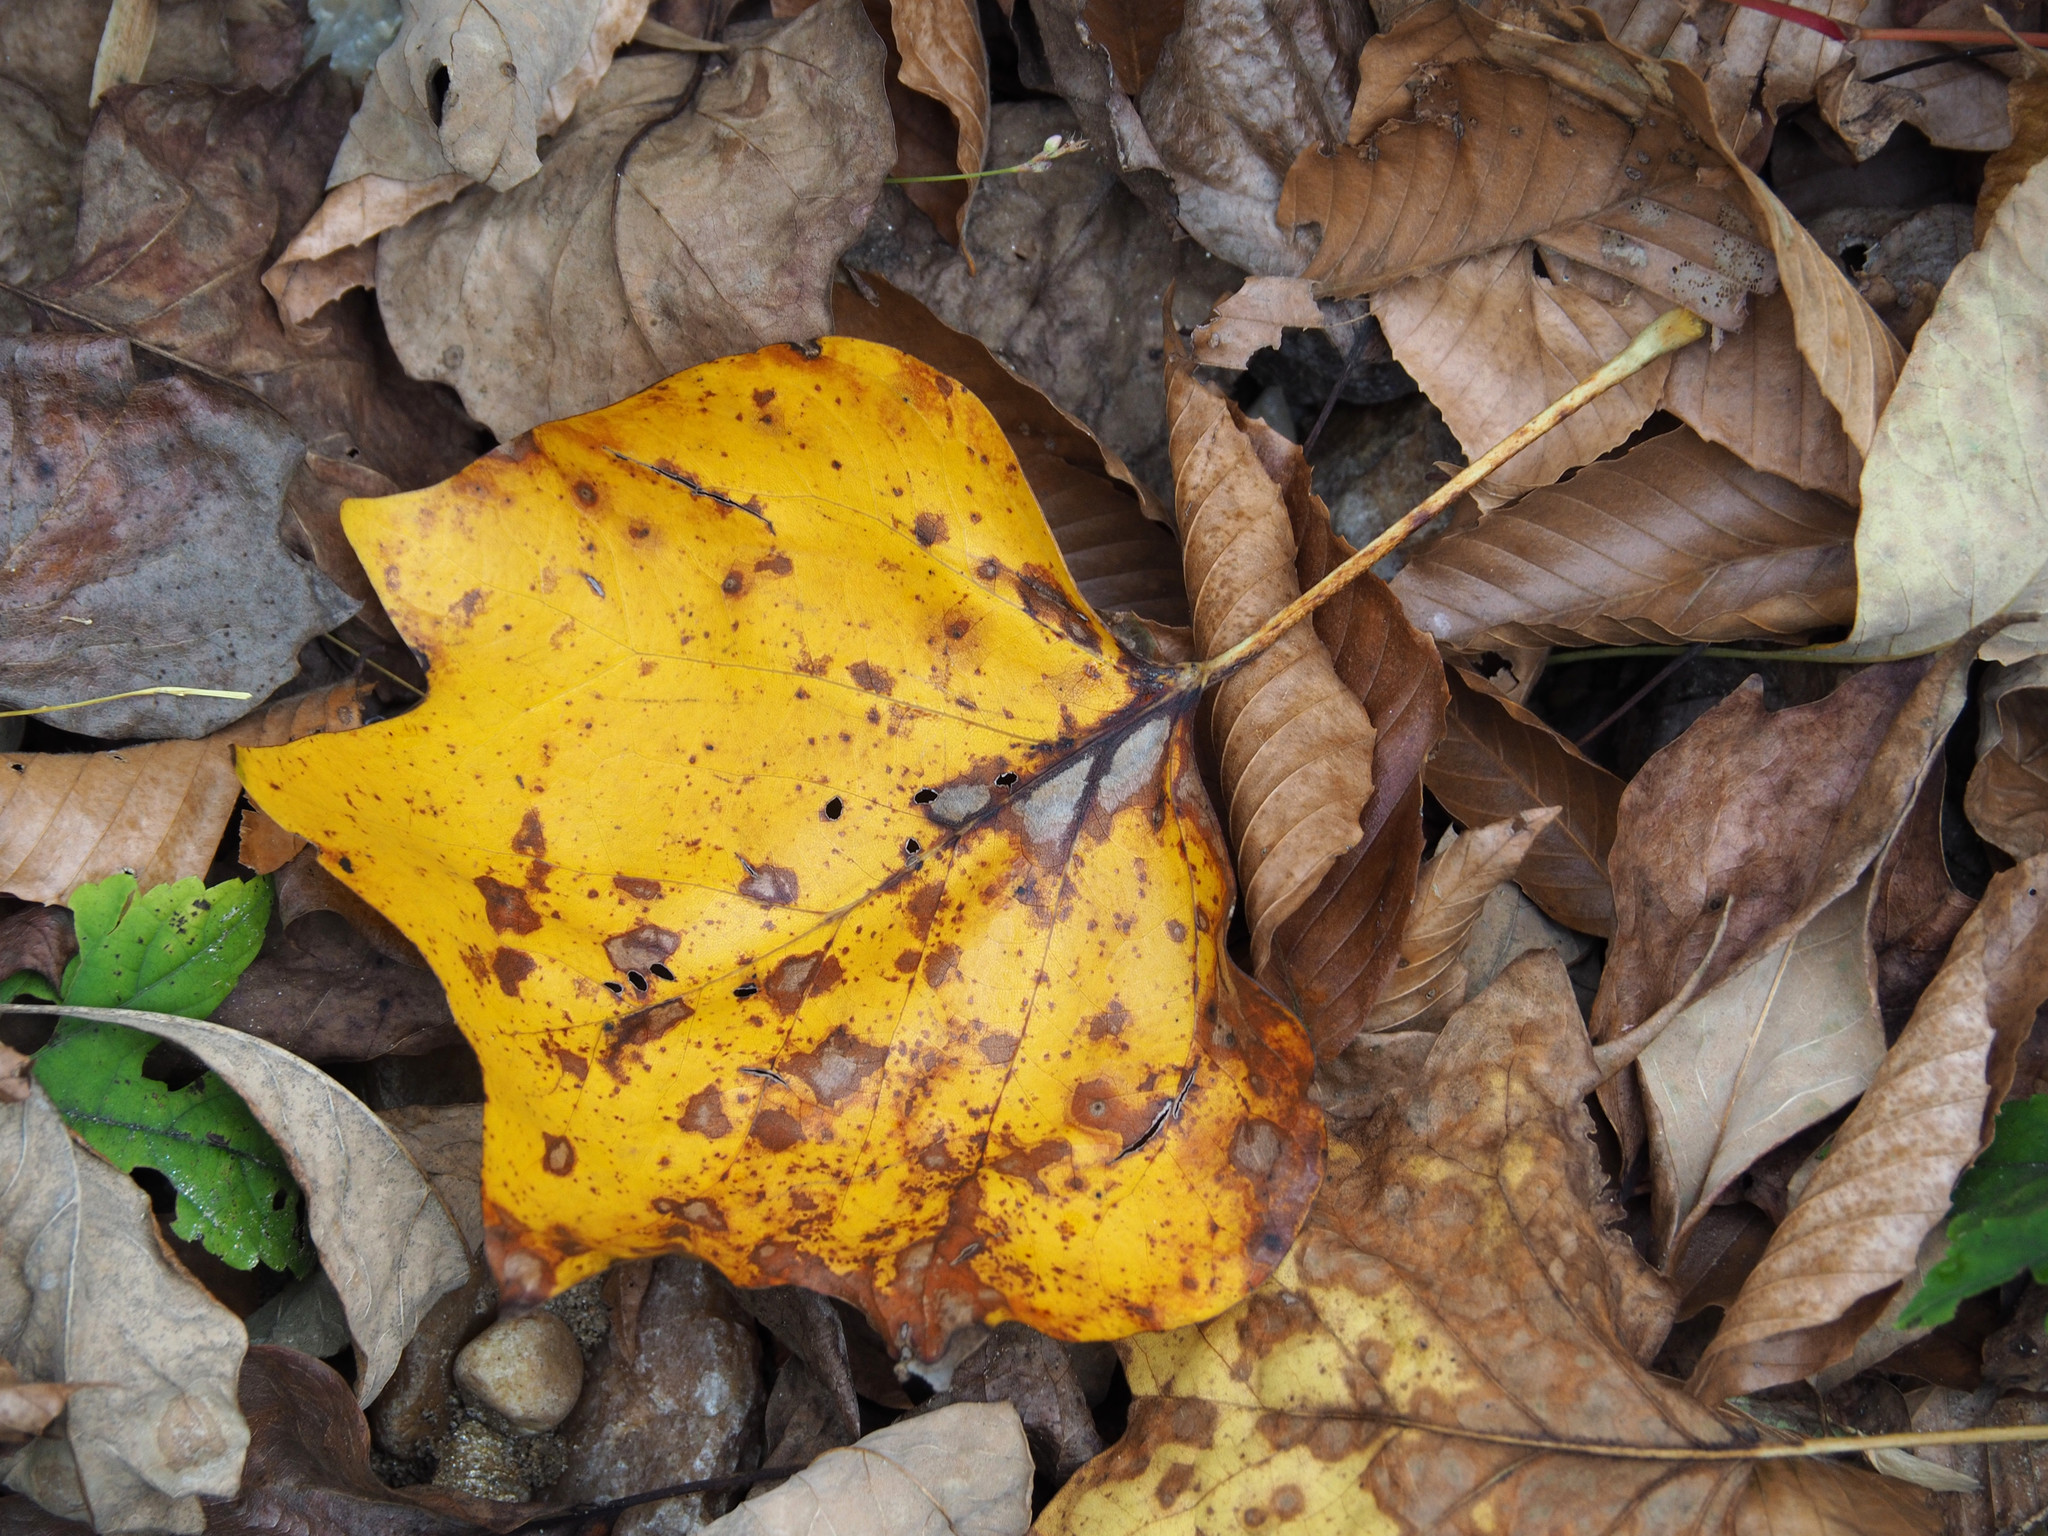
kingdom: Plantae
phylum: Tracheophyta
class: Magnoliopsida
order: Magnoliales
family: Magnoliaceae
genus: Liriodendron
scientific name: Liriodendron tulipifera
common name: Tulip tree
